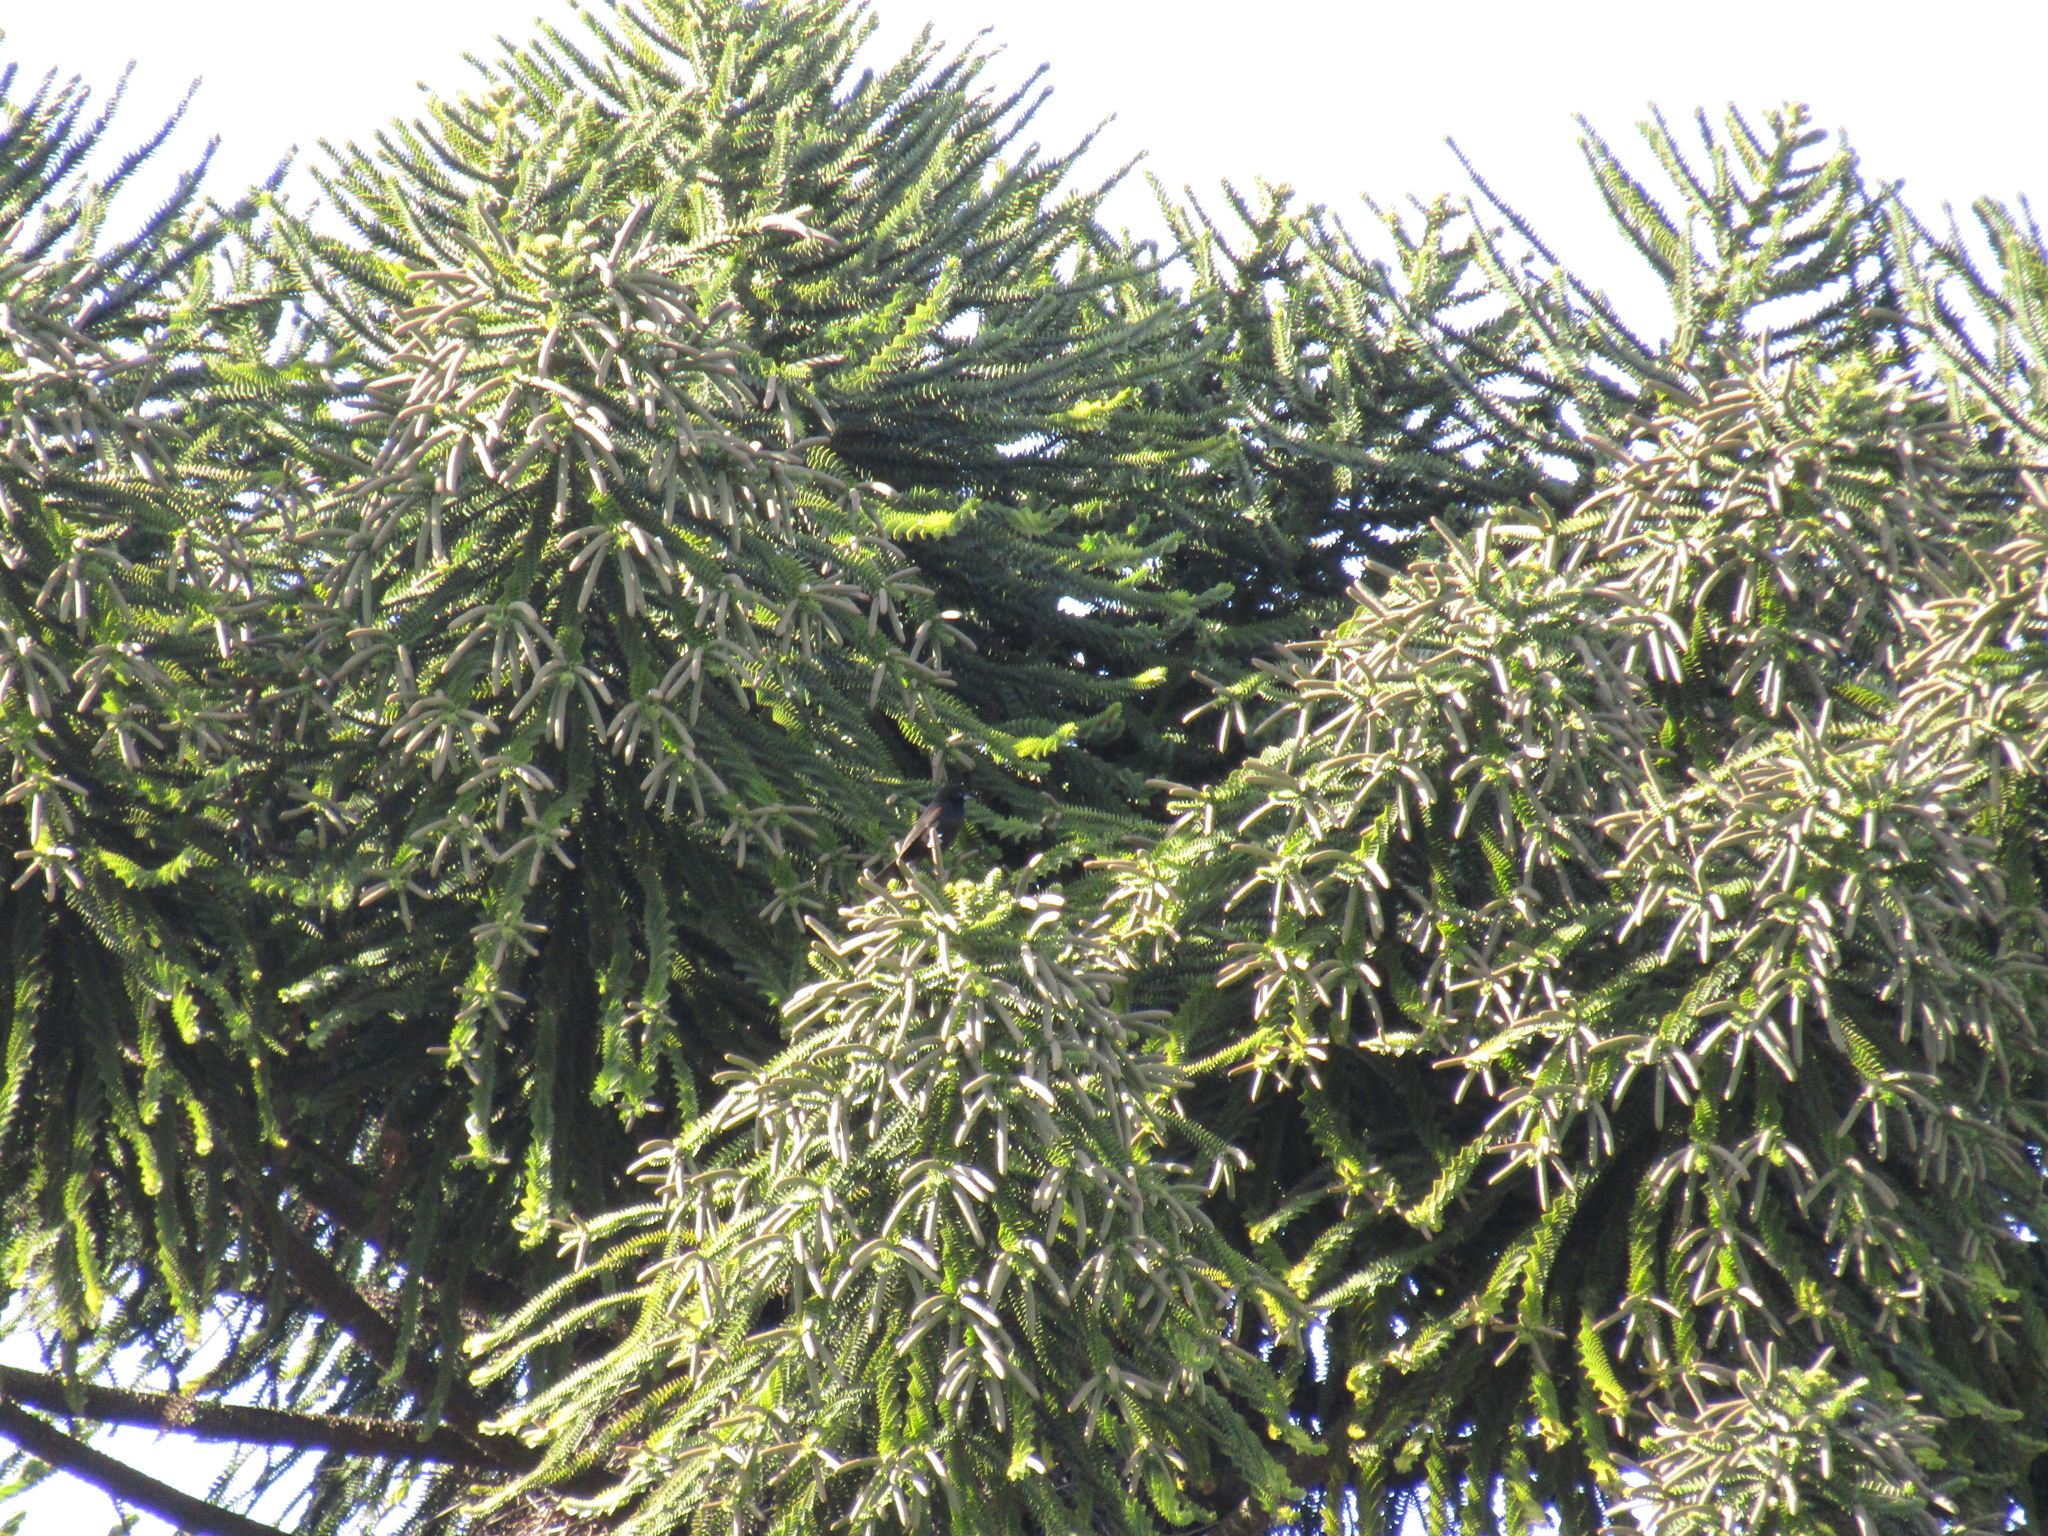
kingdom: Animalia
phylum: Chordata
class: Aves
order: Passeriformes
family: Icteridae
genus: Icterus
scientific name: Icterus cayanensis
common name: Epaulet oriole
